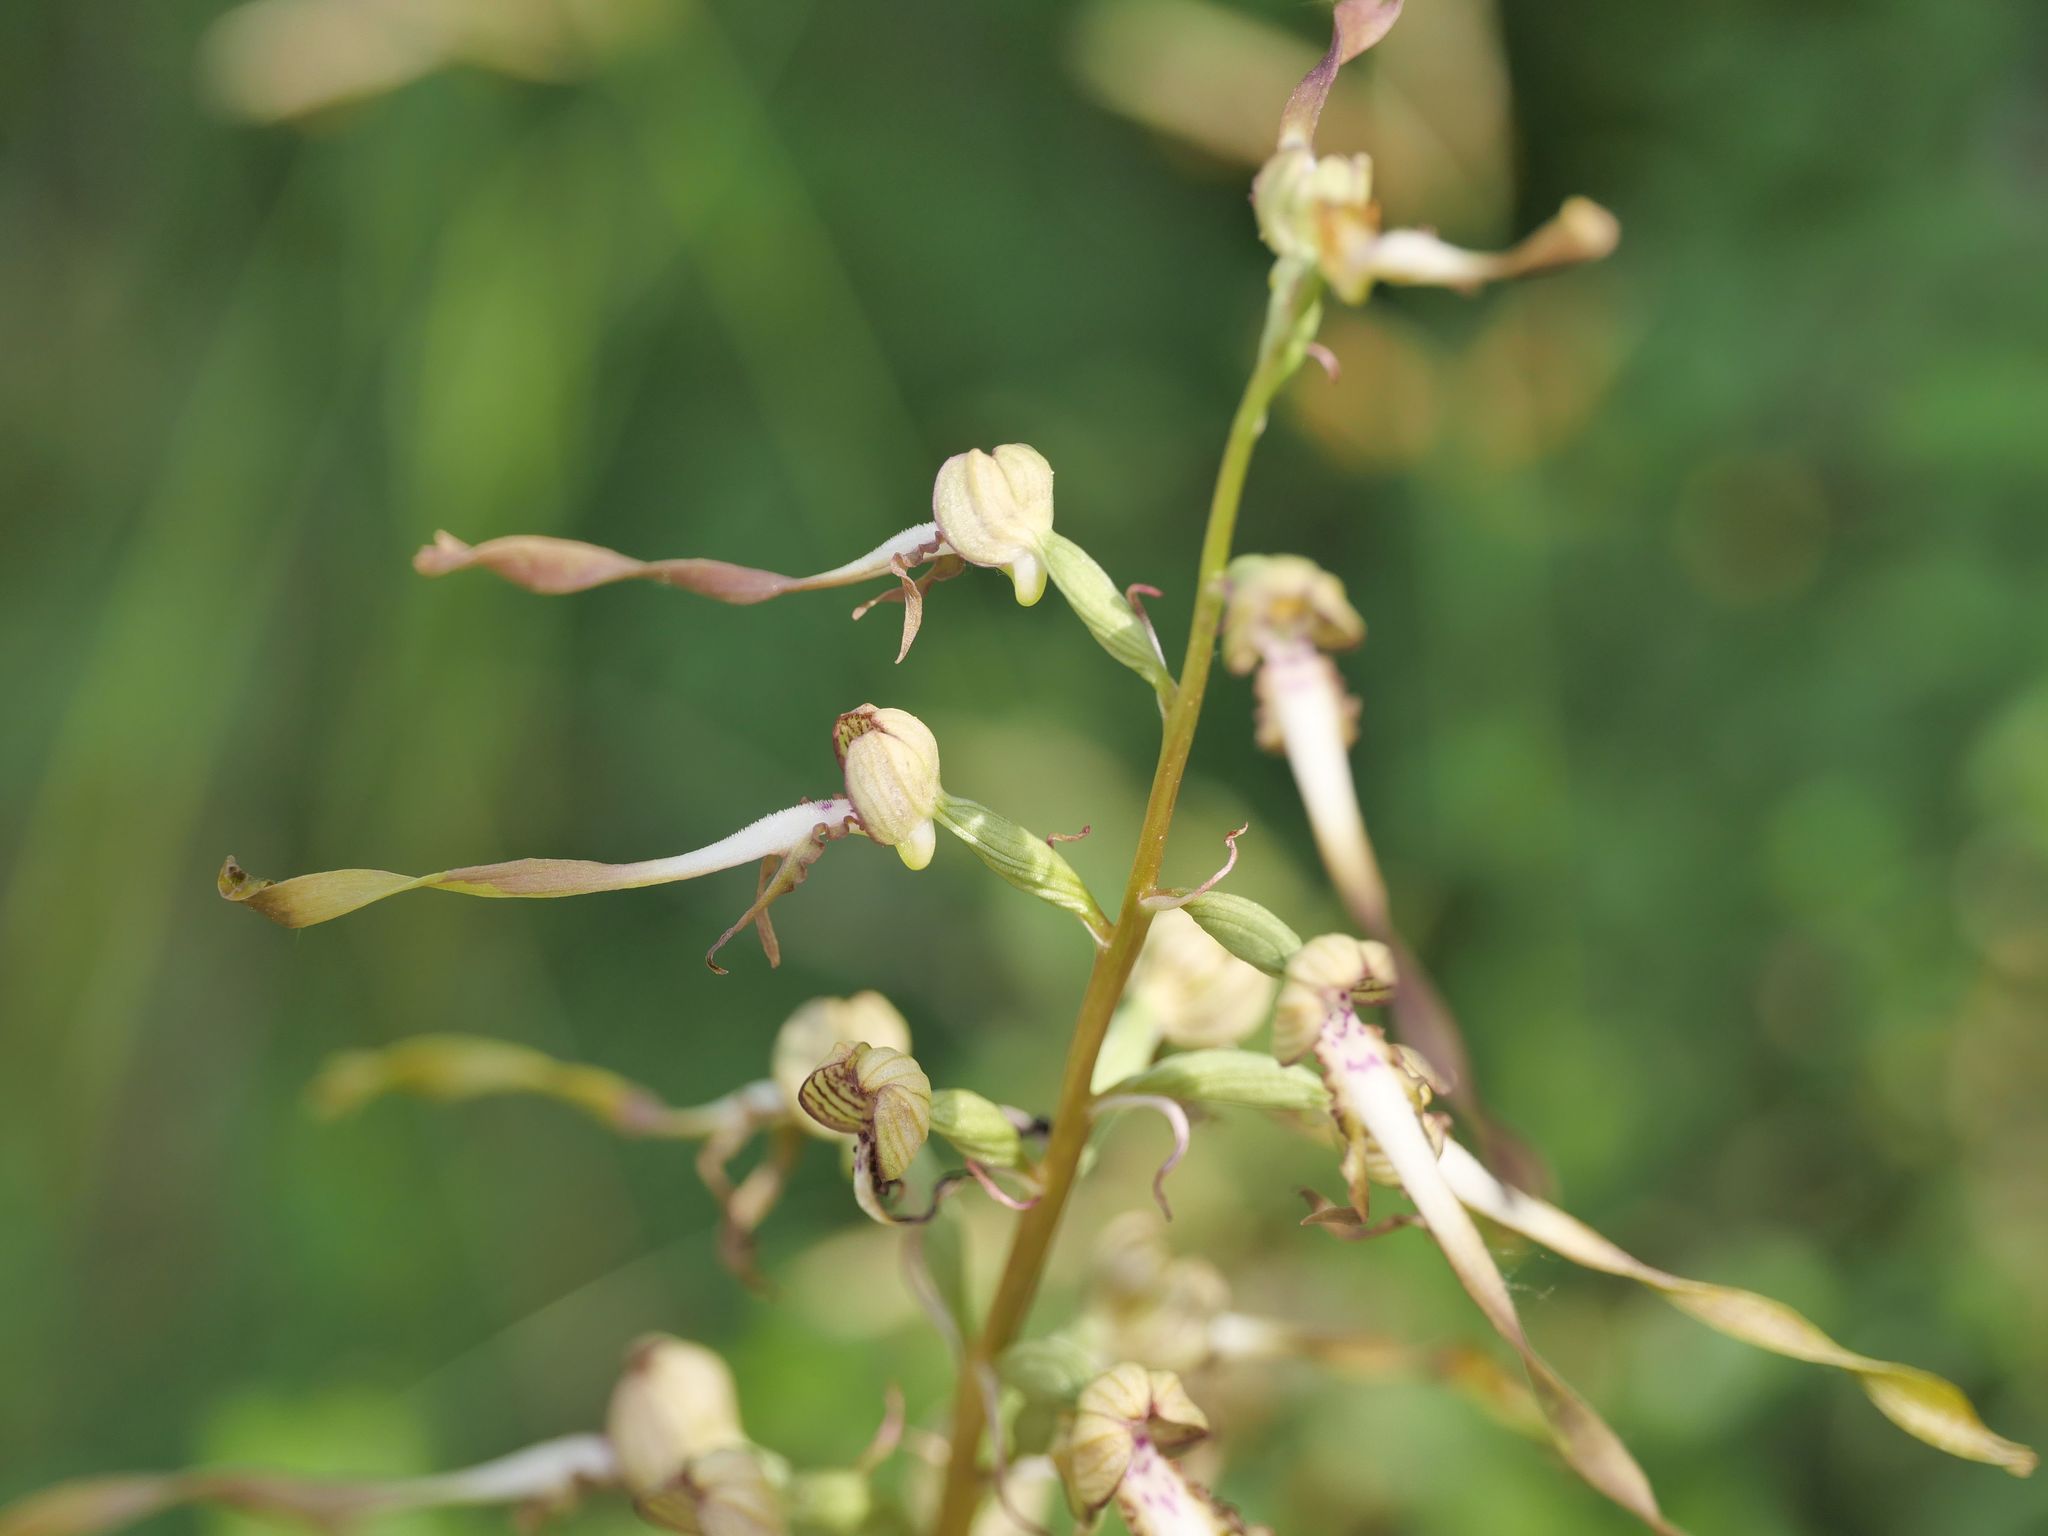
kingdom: Plantae
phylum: Tracheophyta
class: Liliopsida
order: Asparagales
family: Orchidaceae
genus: Himantoglossum
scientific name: Himantoglossum hircinum
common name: Lizard orchid
